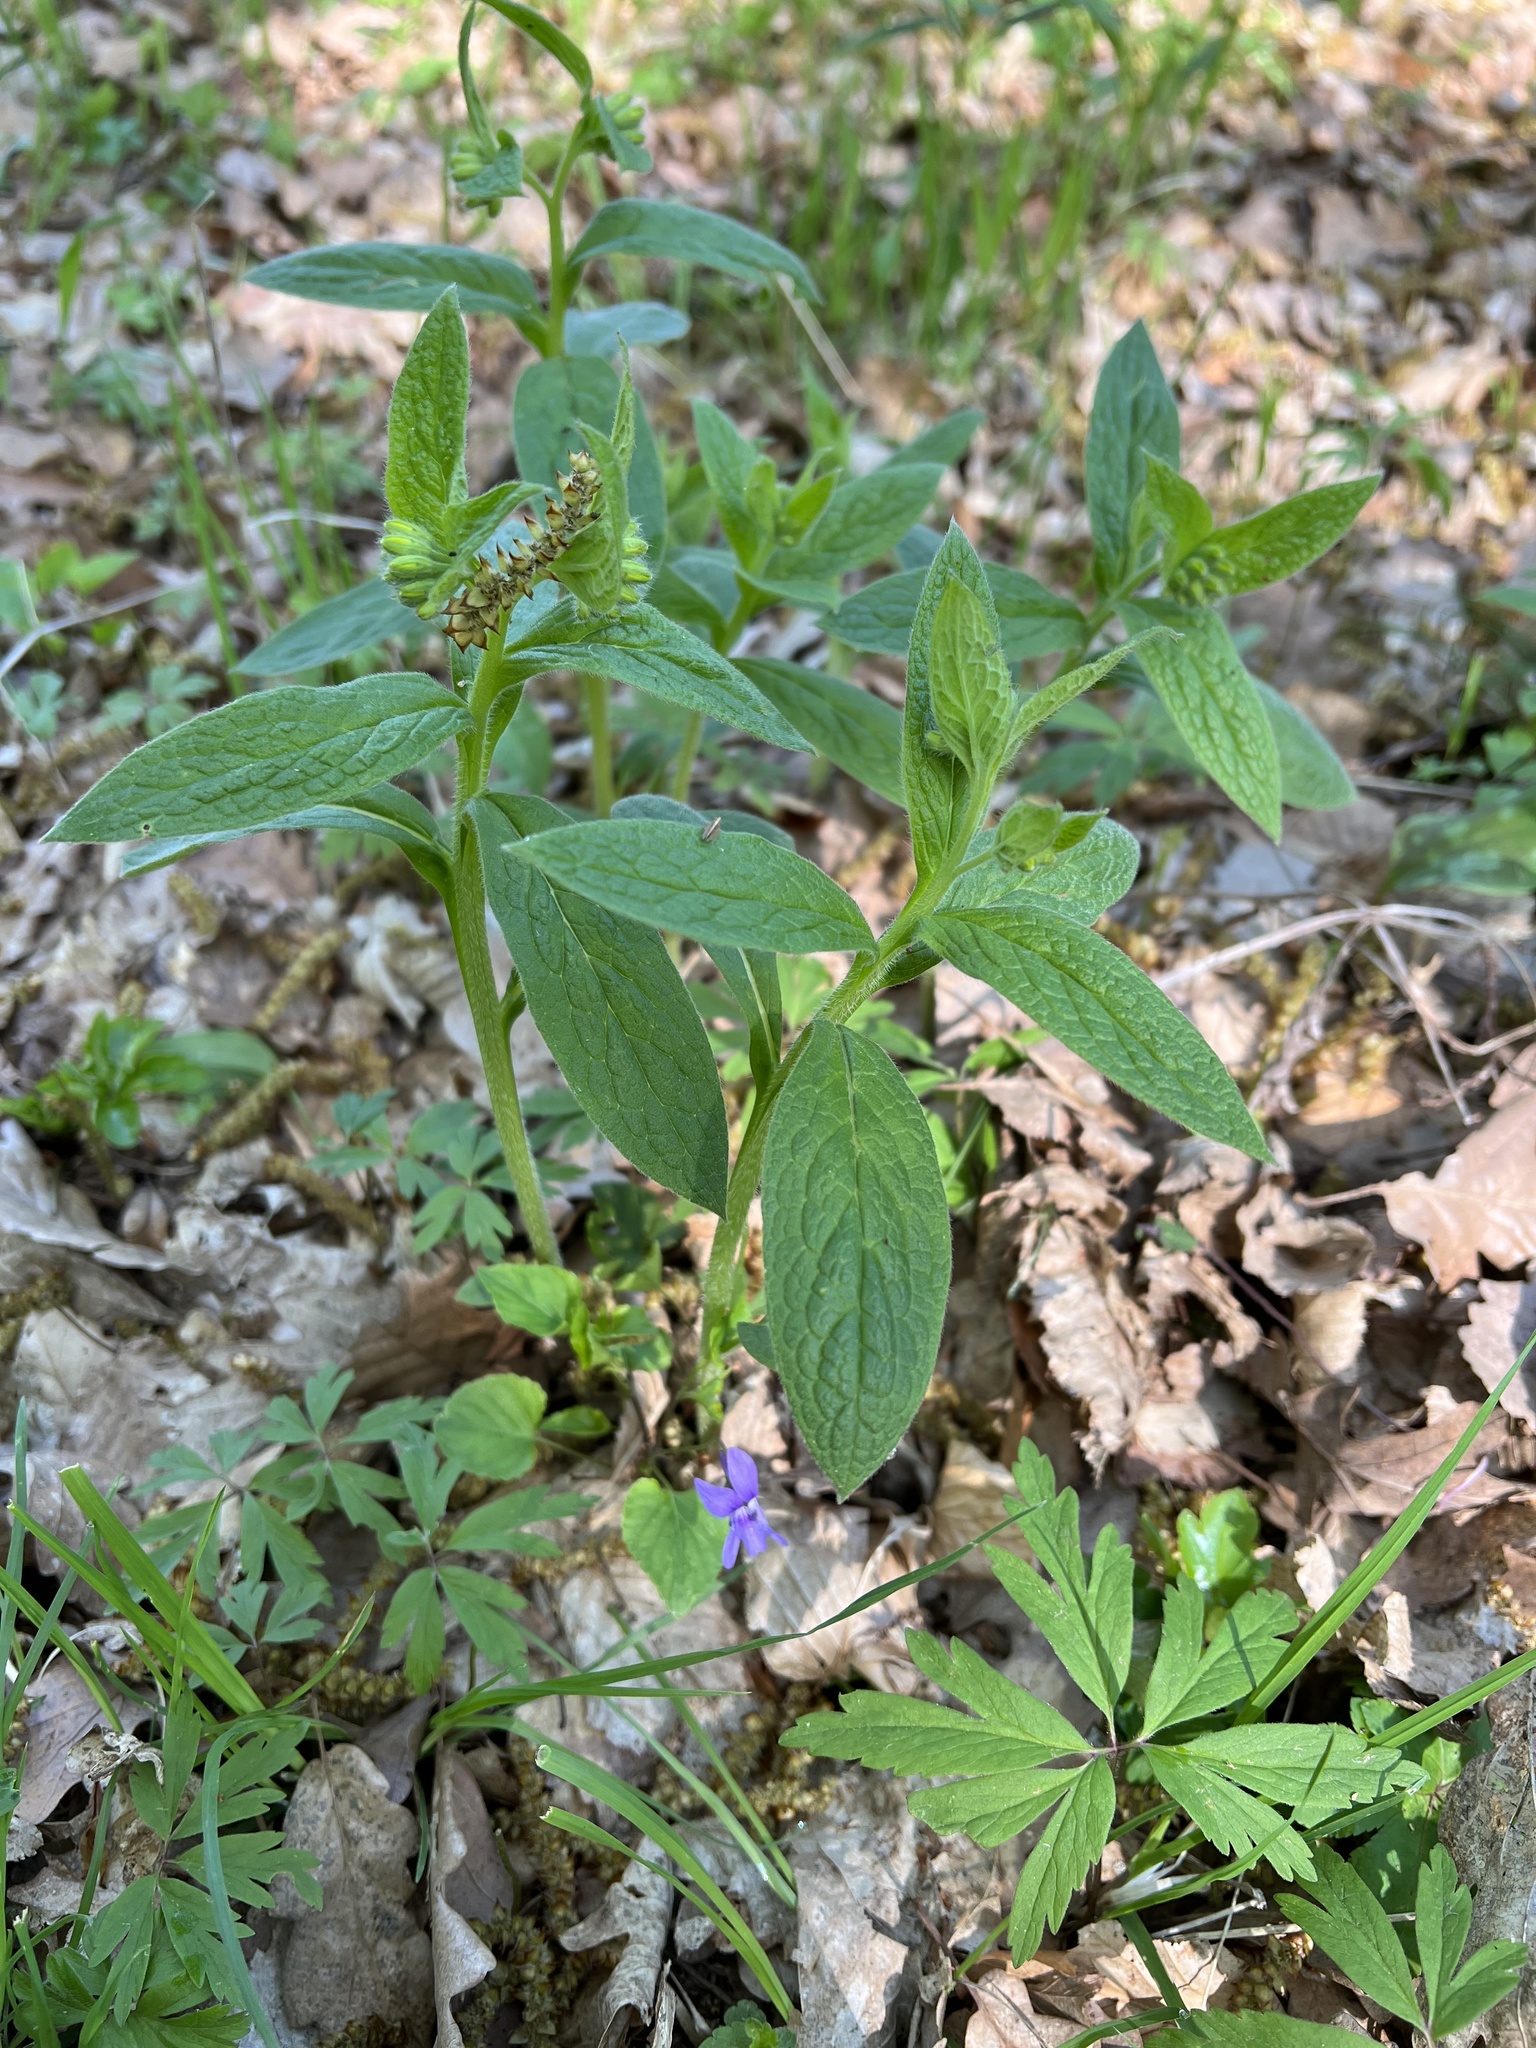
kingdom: Plantae
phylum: Tracheophyta
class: Magnoliopsida
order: Boraginales
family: Boraginaceae
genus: Symphytum
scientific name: Symphytum tuberosum
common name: Tuberous comfrey
